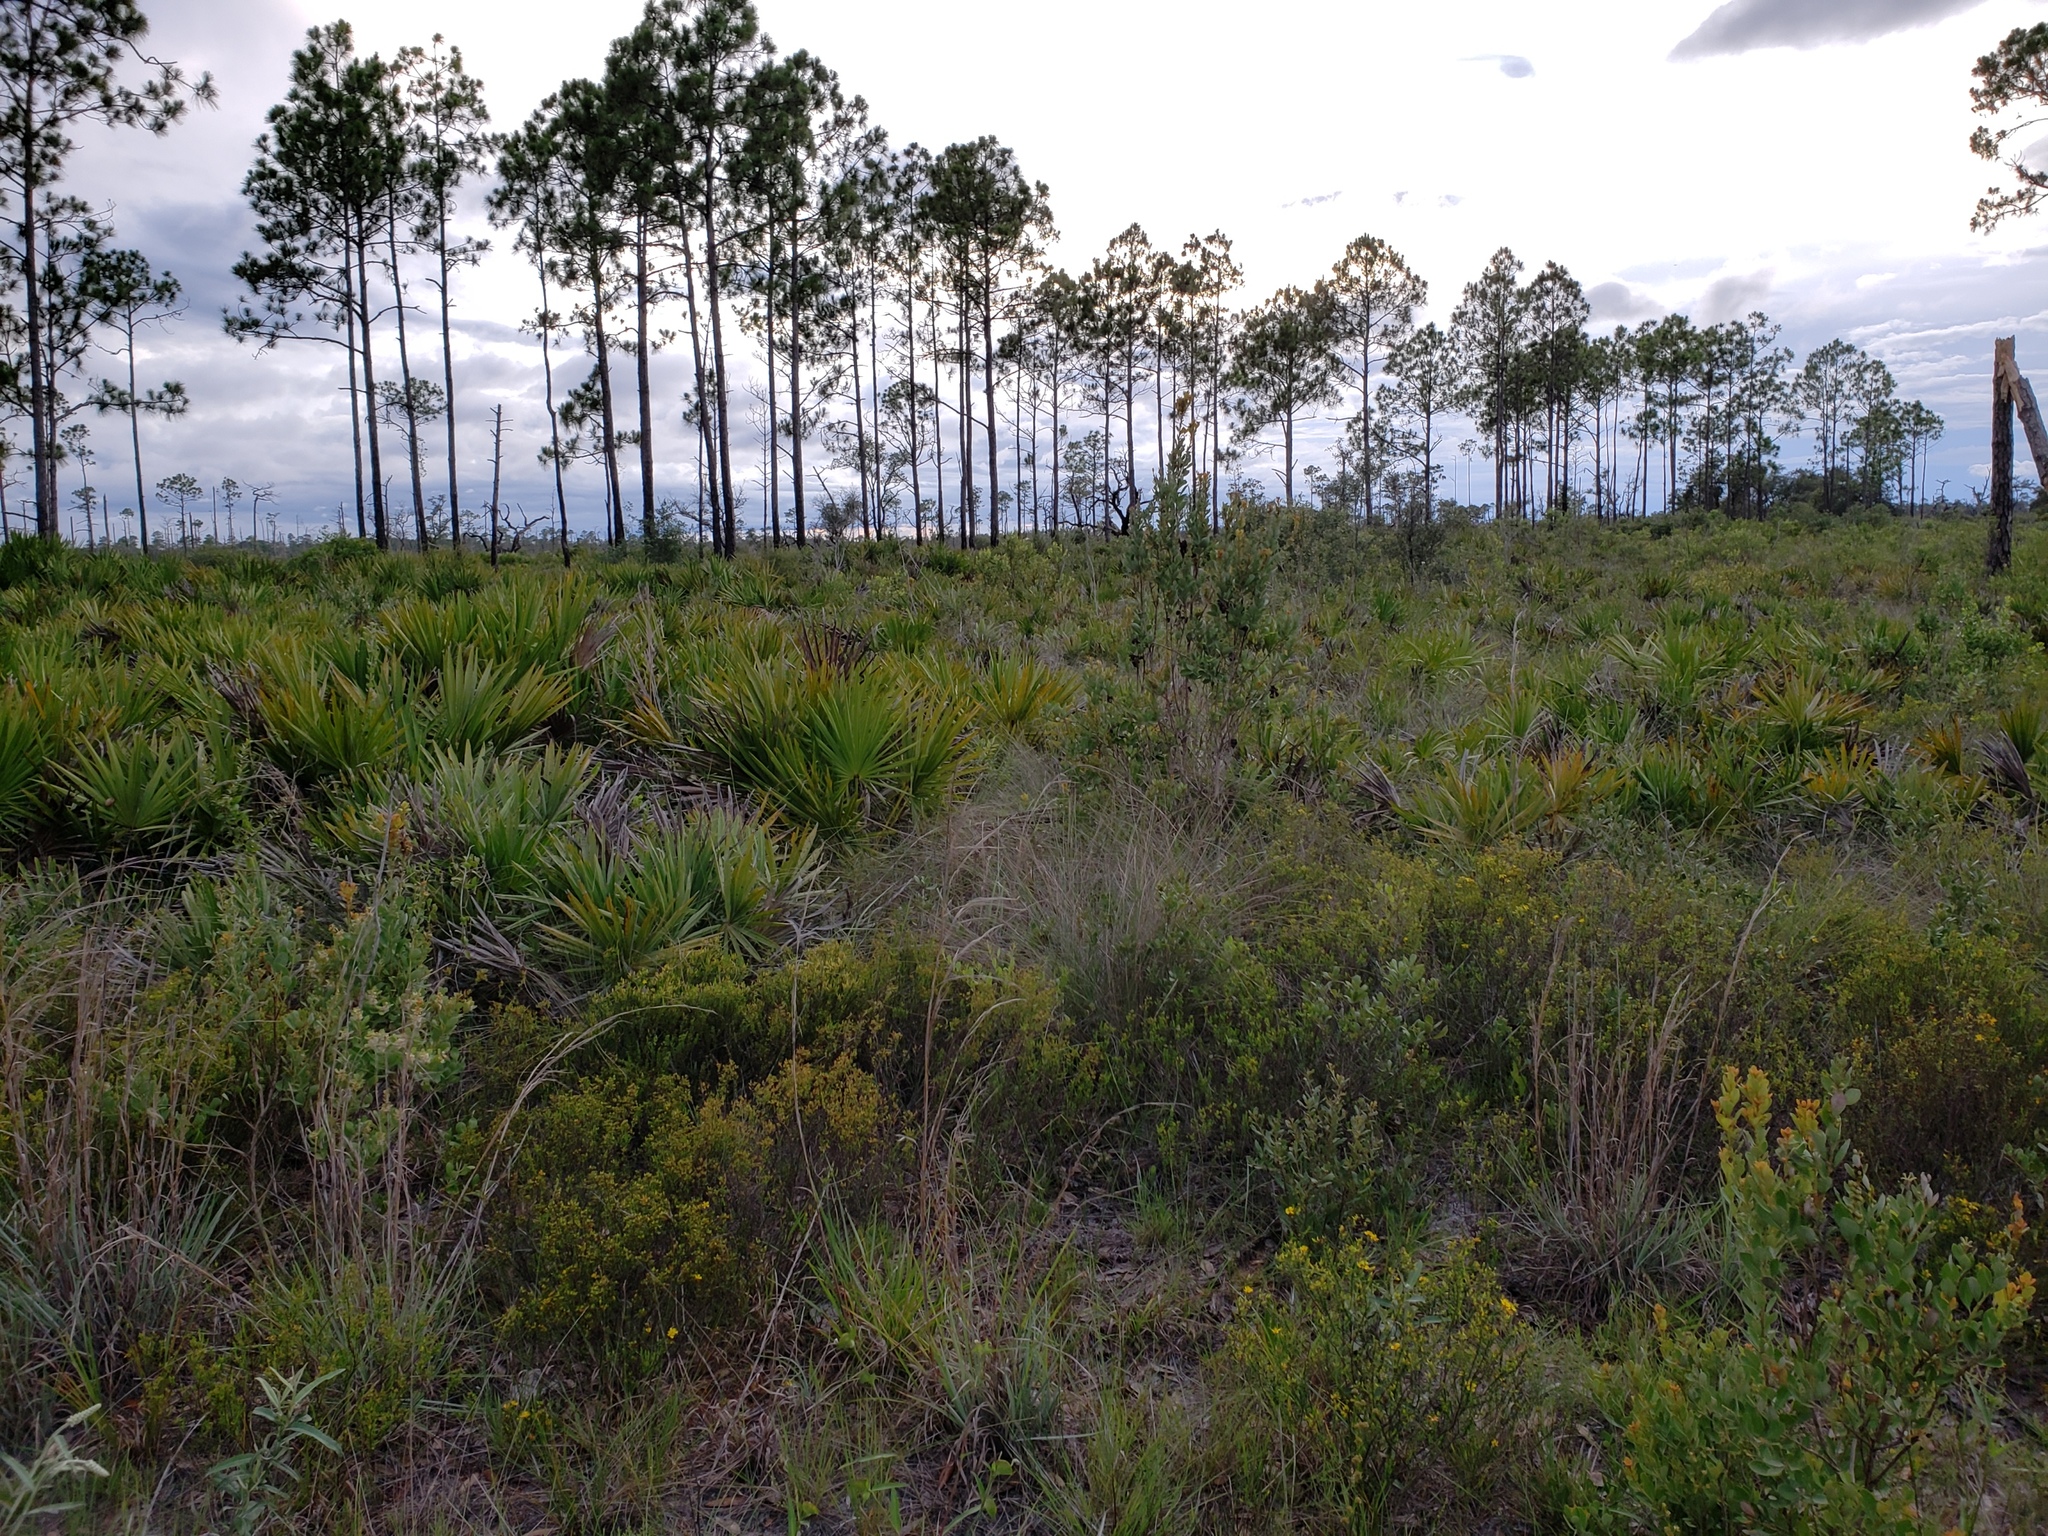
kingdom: Plantae
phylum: Tracheophyta
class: Liliopsida
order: Arecales
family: Arecaceae
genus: Serenoa
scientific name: Serenoa repens
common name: Saw-palmetto
